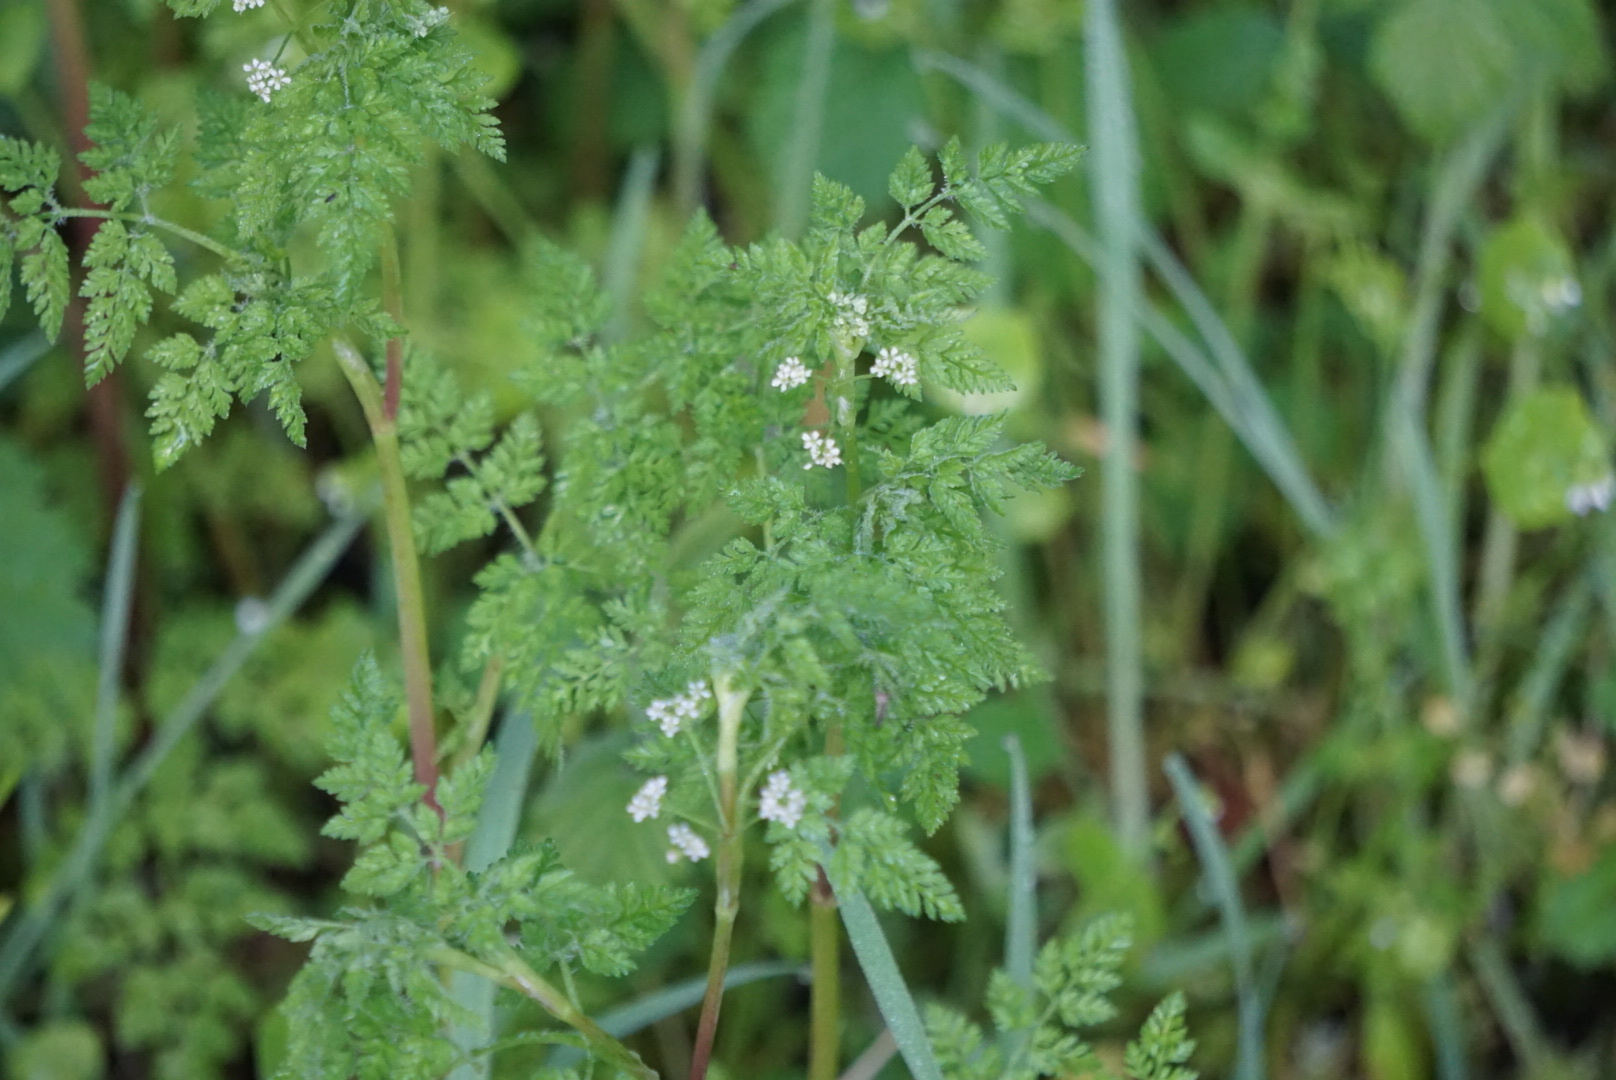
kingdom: Plantae
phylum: Tracheophyta
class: Magnoliopsida
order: Apiales
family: Apiaceae
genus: Anthriscus
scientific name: Anthriscus caucalis
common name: Bur chervil
